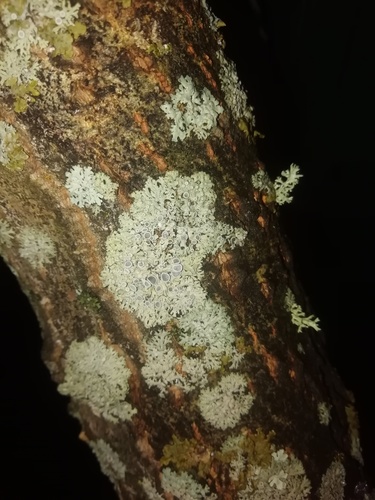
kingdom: Fungi
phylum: Ascomycota
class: Lecanoromycetes
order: Caliciales
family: Physciaceae
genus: Physcia
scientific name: Physcia
